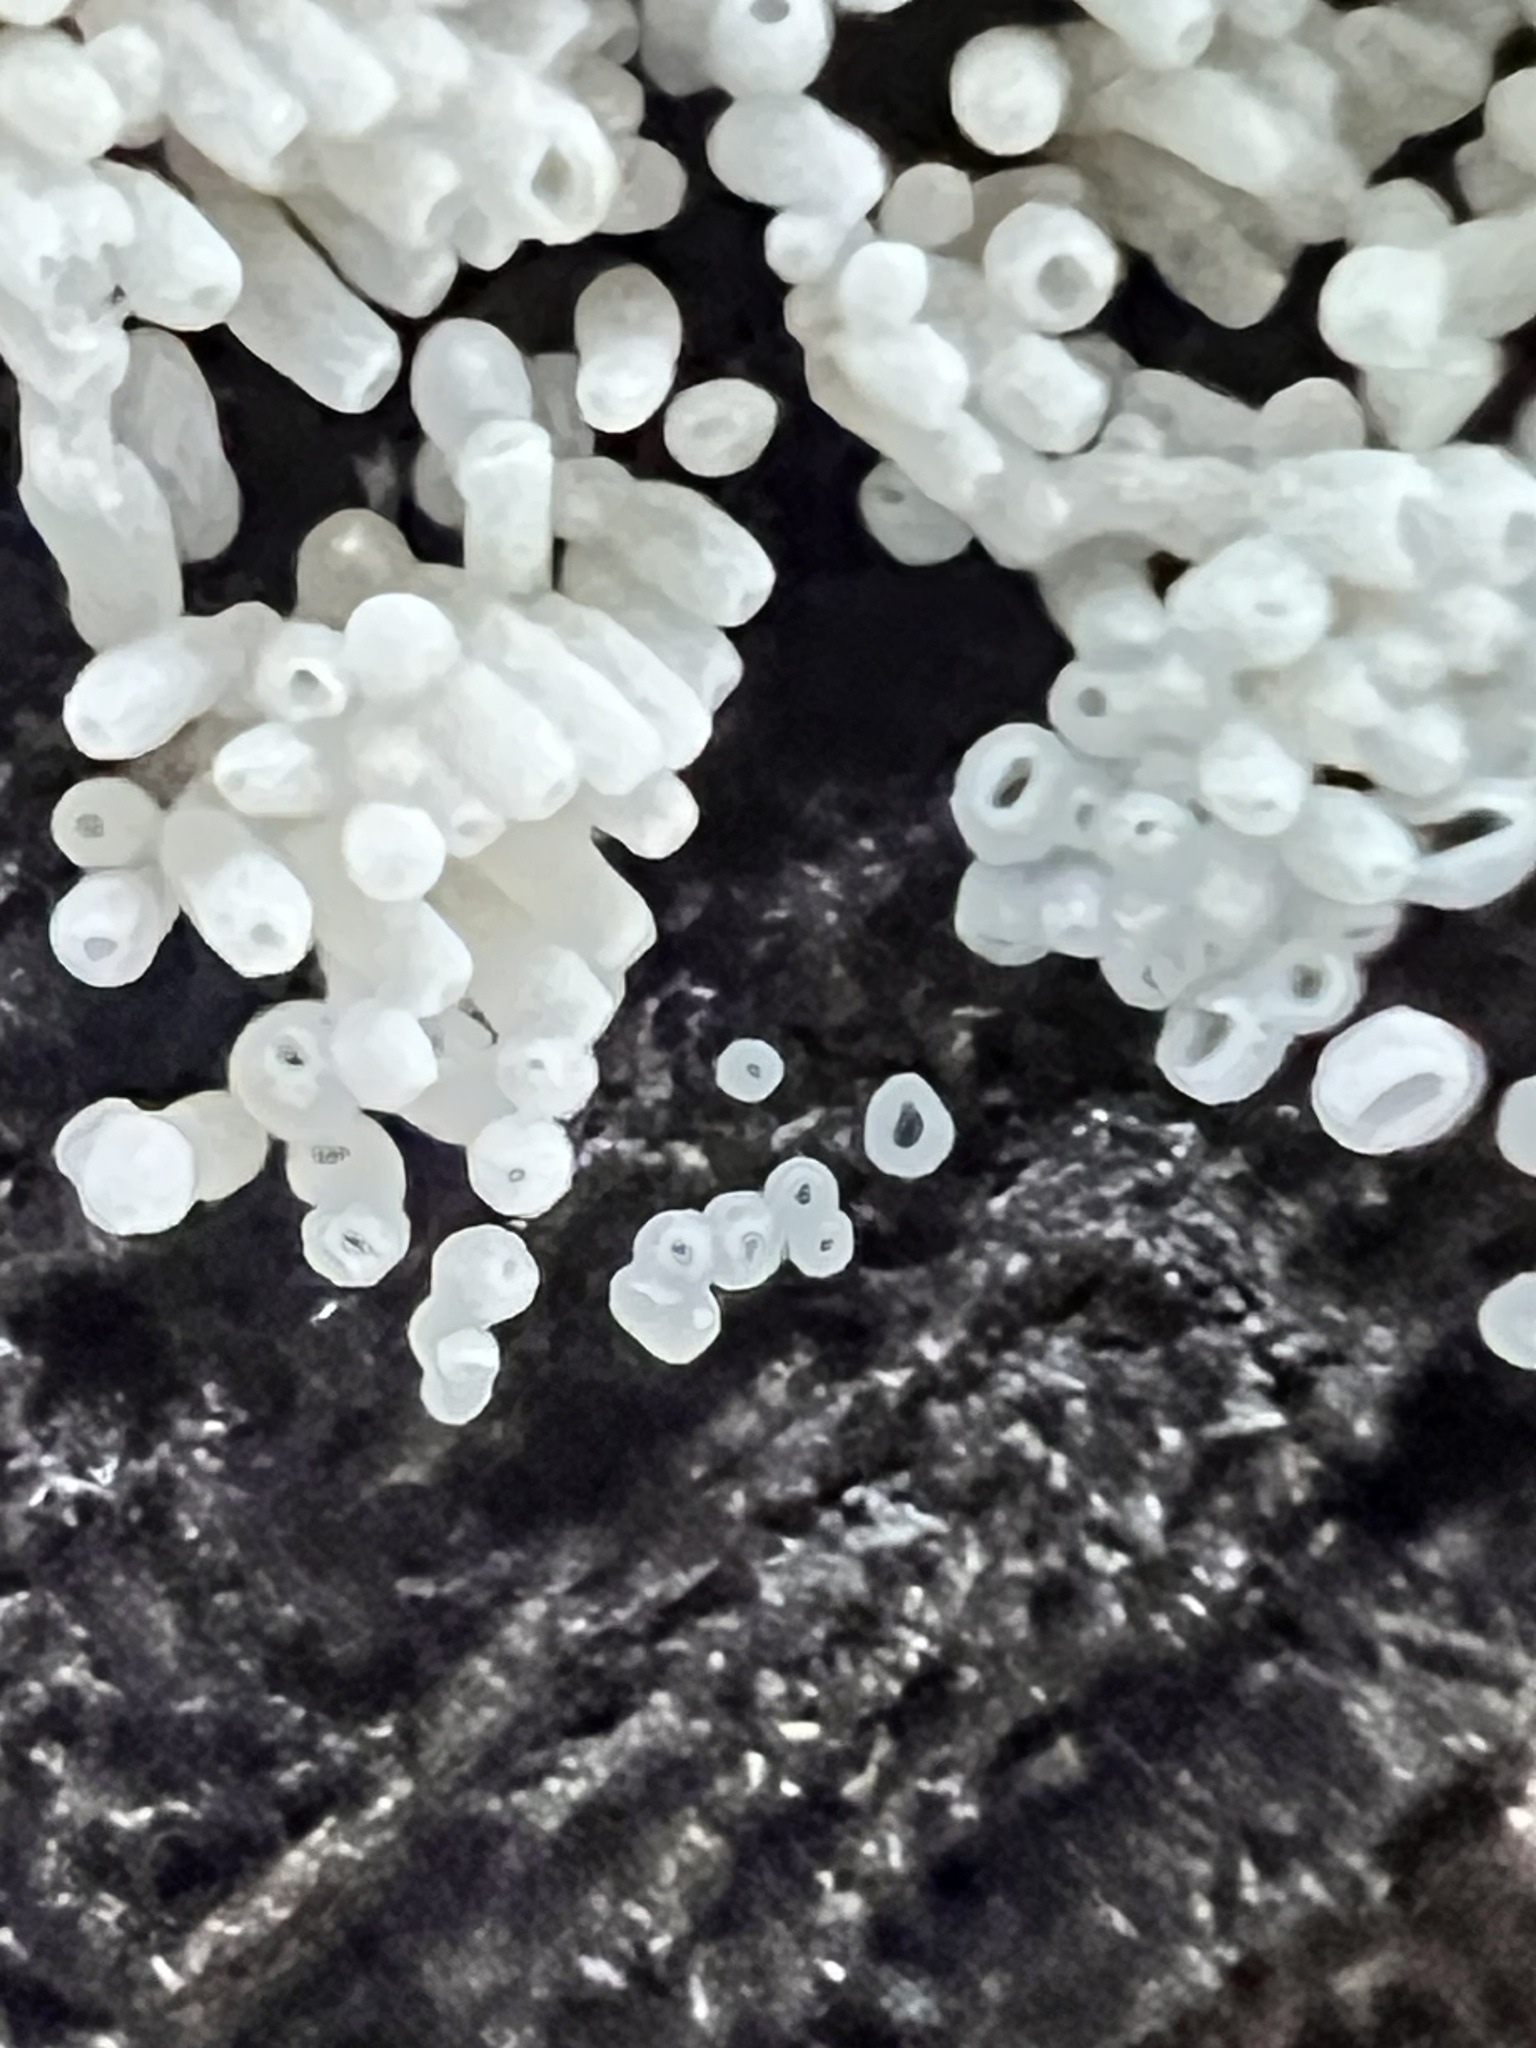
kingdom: Fungi
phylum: Basidiomycota
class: Agaricomycetes
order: Agaricales
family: Marasmiaceae
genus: Henningsomyces
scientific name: Henningsomyces candidus
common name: White tubelet
